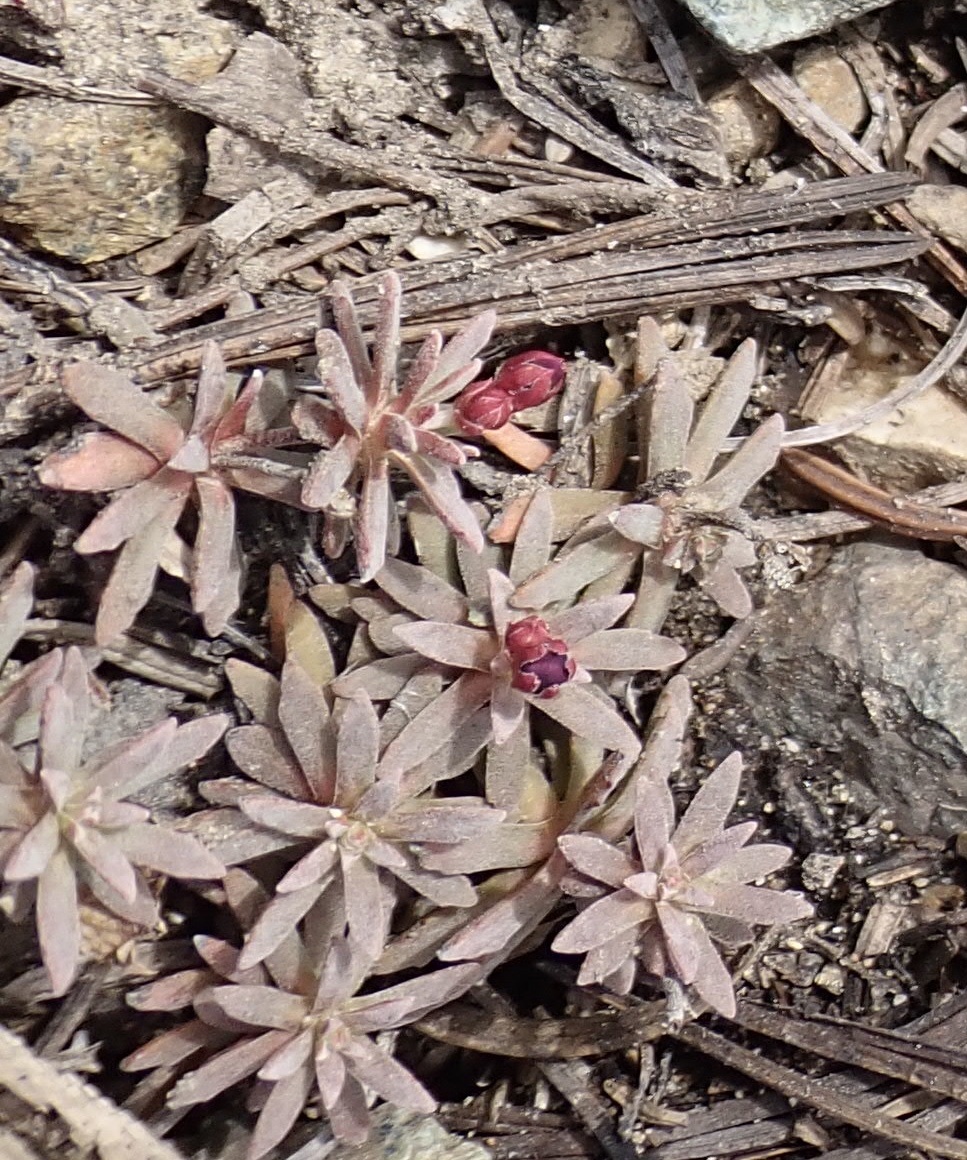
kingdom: Plantae
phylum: Tracheophyta
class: Magnoliopsida
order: Ericales
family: Primulaceae
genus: Androsace
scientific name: Androsace nivalis
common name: Snow dwarf-primrose
